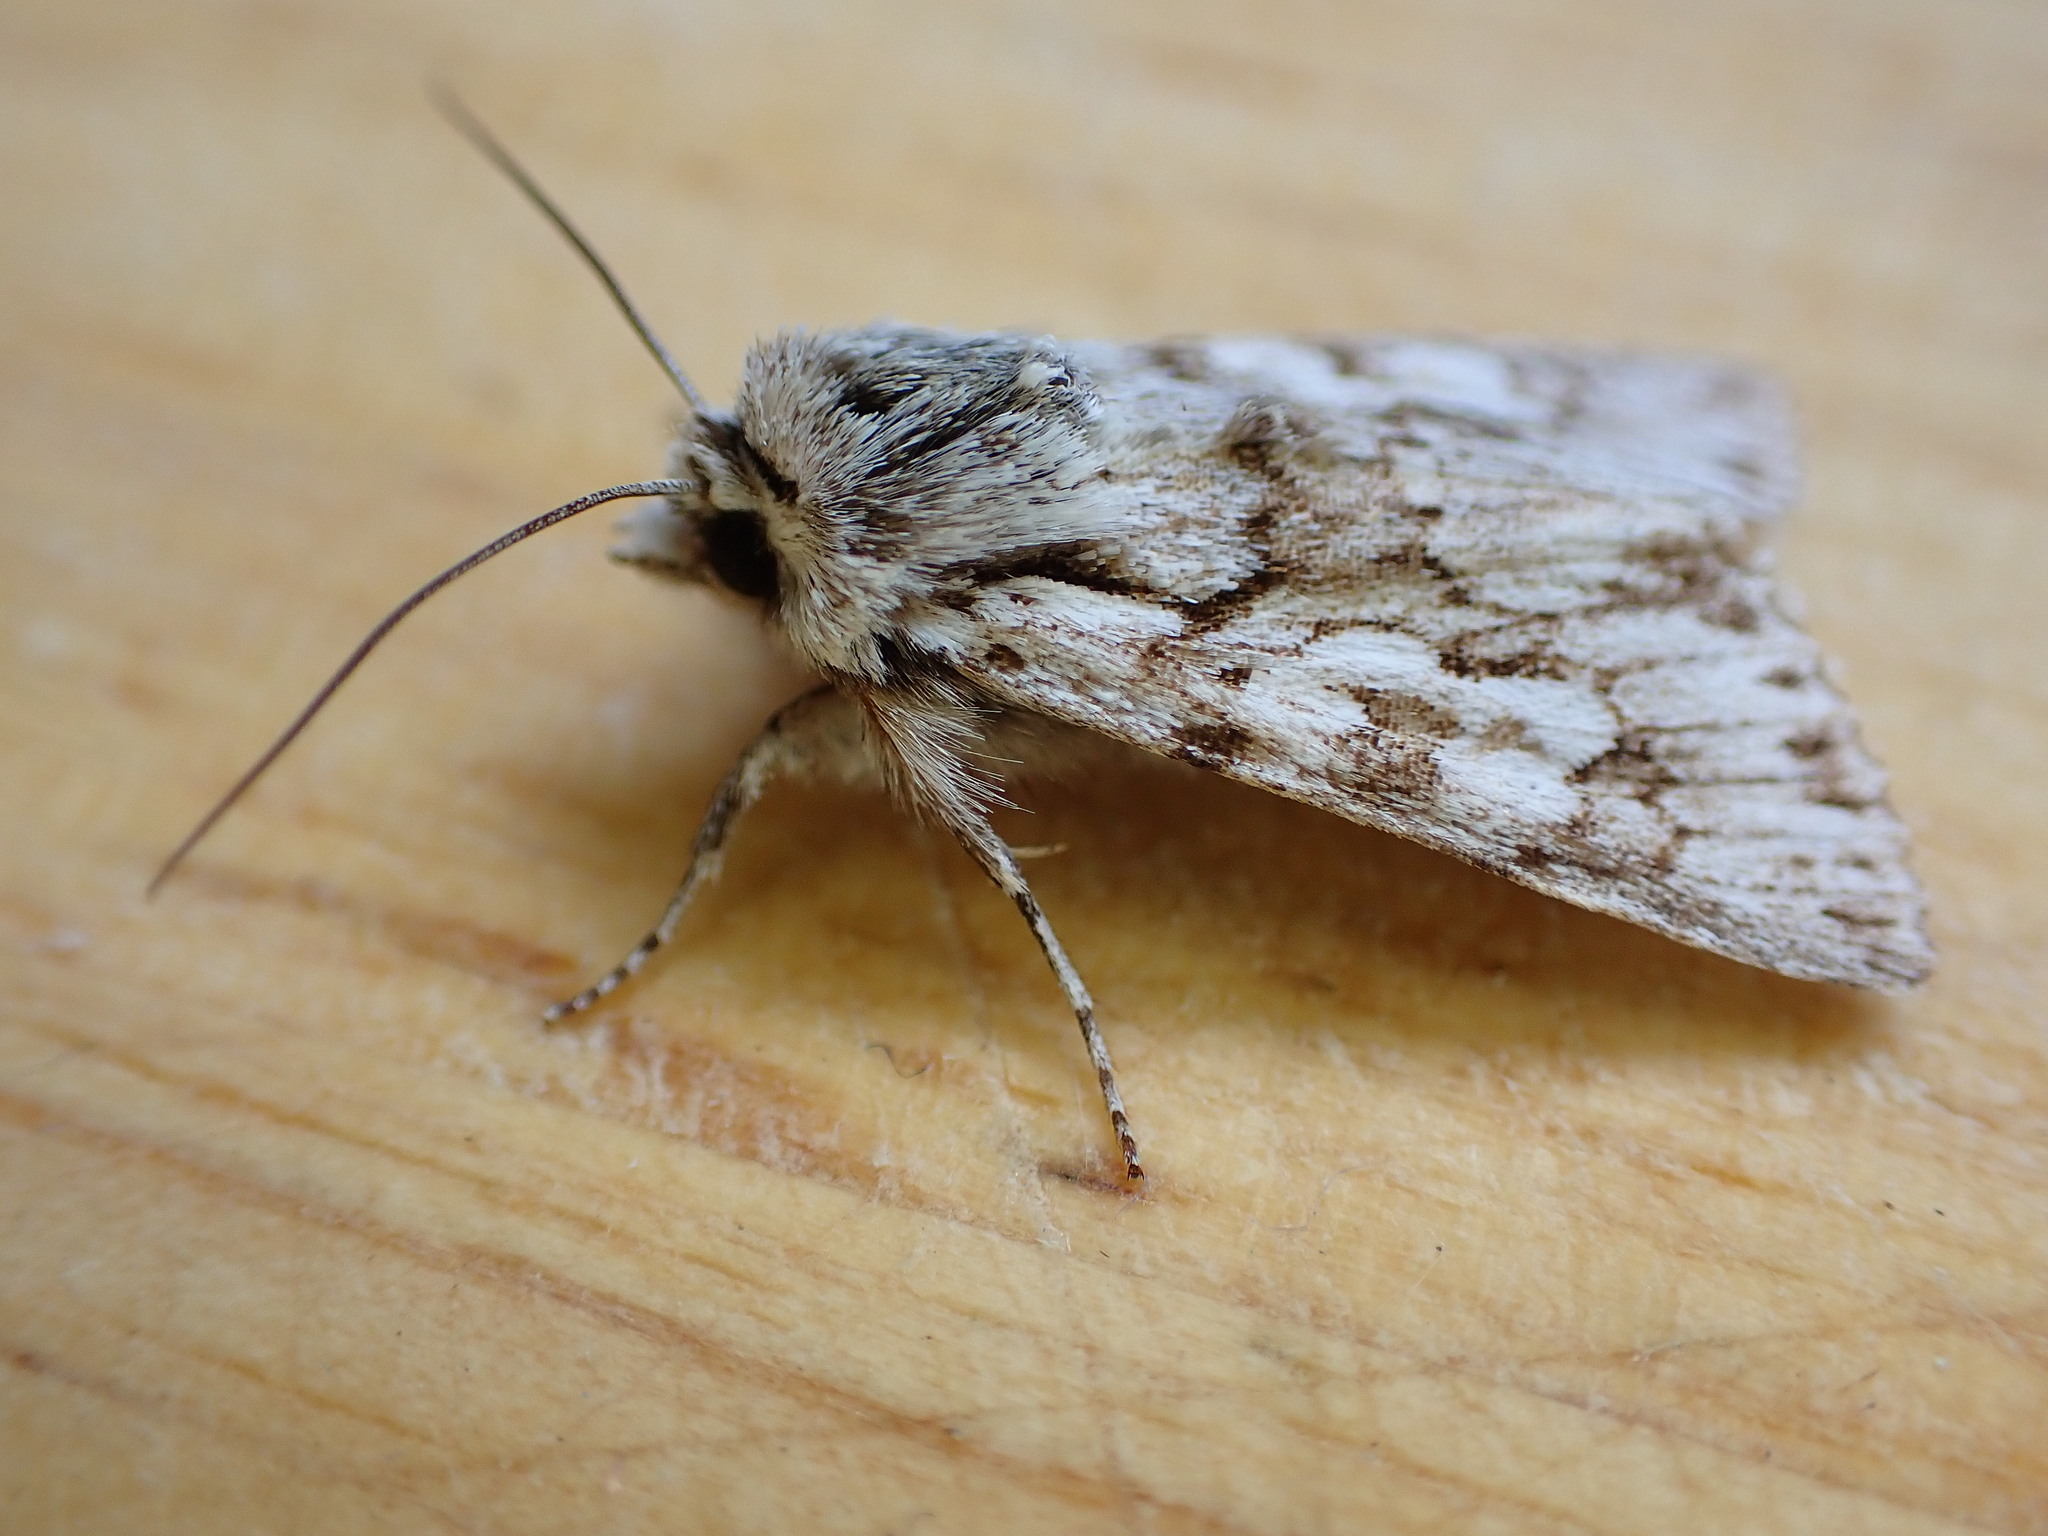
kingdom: Animalia
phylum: Arthropoda
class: Insecta
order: Lepidoptera
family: Noctuidae
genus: Xylocampa
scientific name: Xylocampa areola
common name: Early grey
